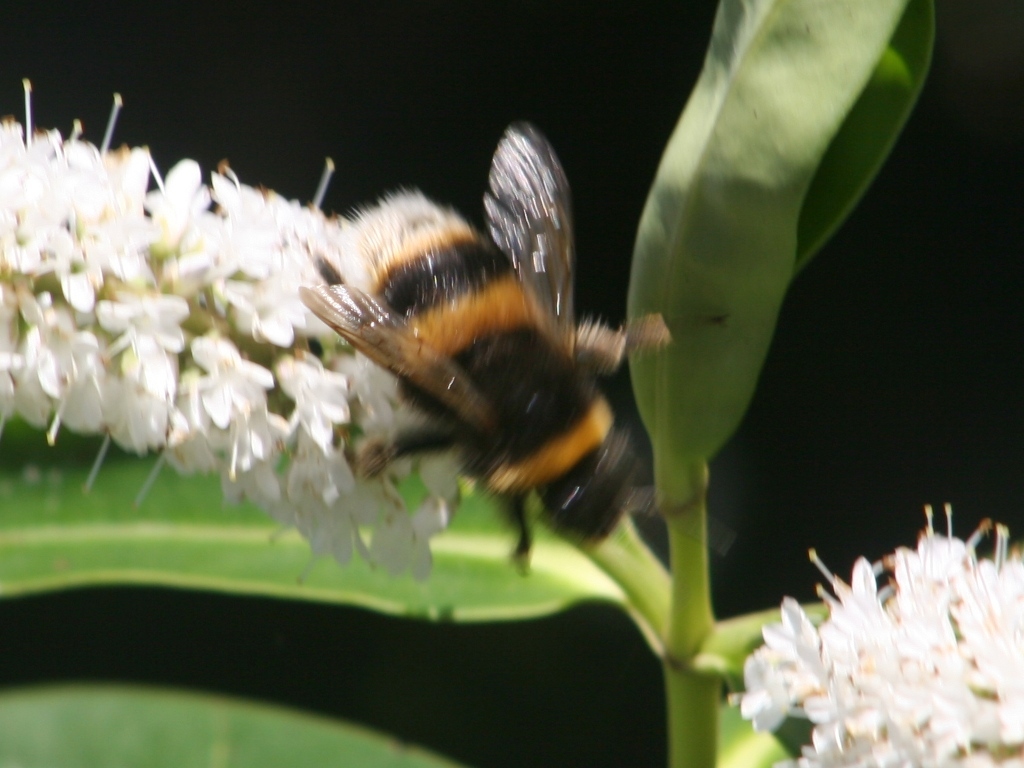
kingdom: Animalia
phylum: Arthropoda
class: Insecta
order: Hymenoptera
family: Apidae
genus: Bombus
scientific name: Bombus terrestris
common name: Buff-tailed bumblebee
